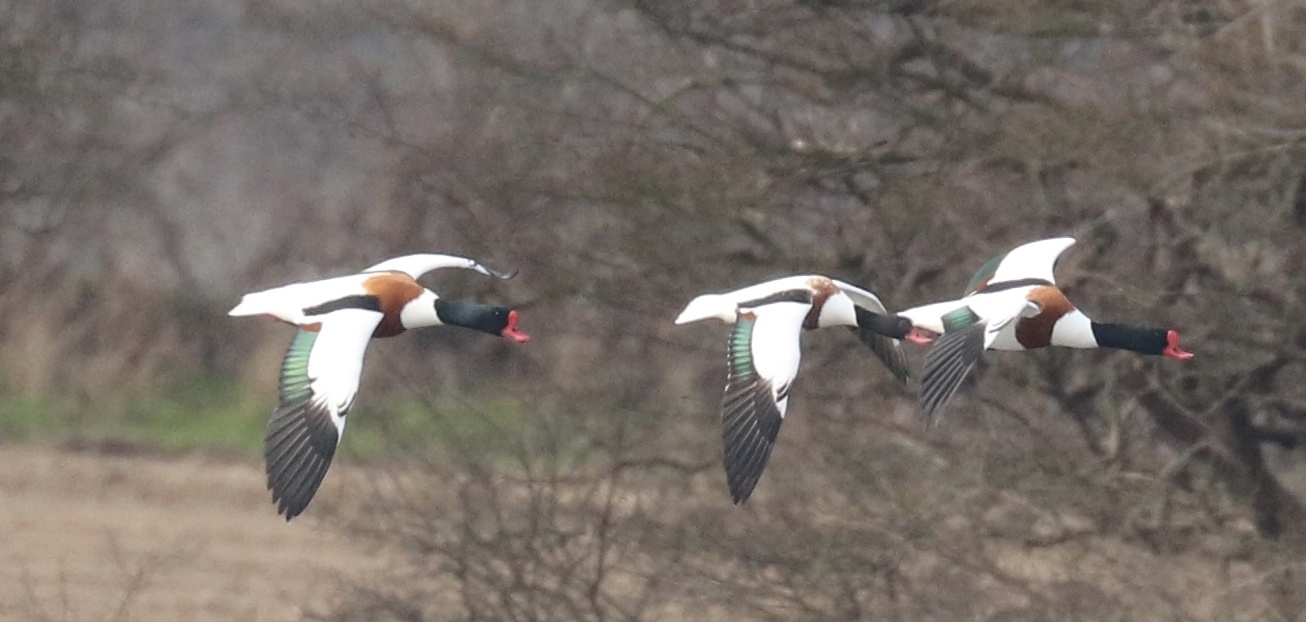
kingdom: Animalia
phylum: Chordata
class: Aves
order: Anseriformes
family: Anatidae
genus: Tadorna
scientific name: Tadorna tadorna
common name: Common shelduck
